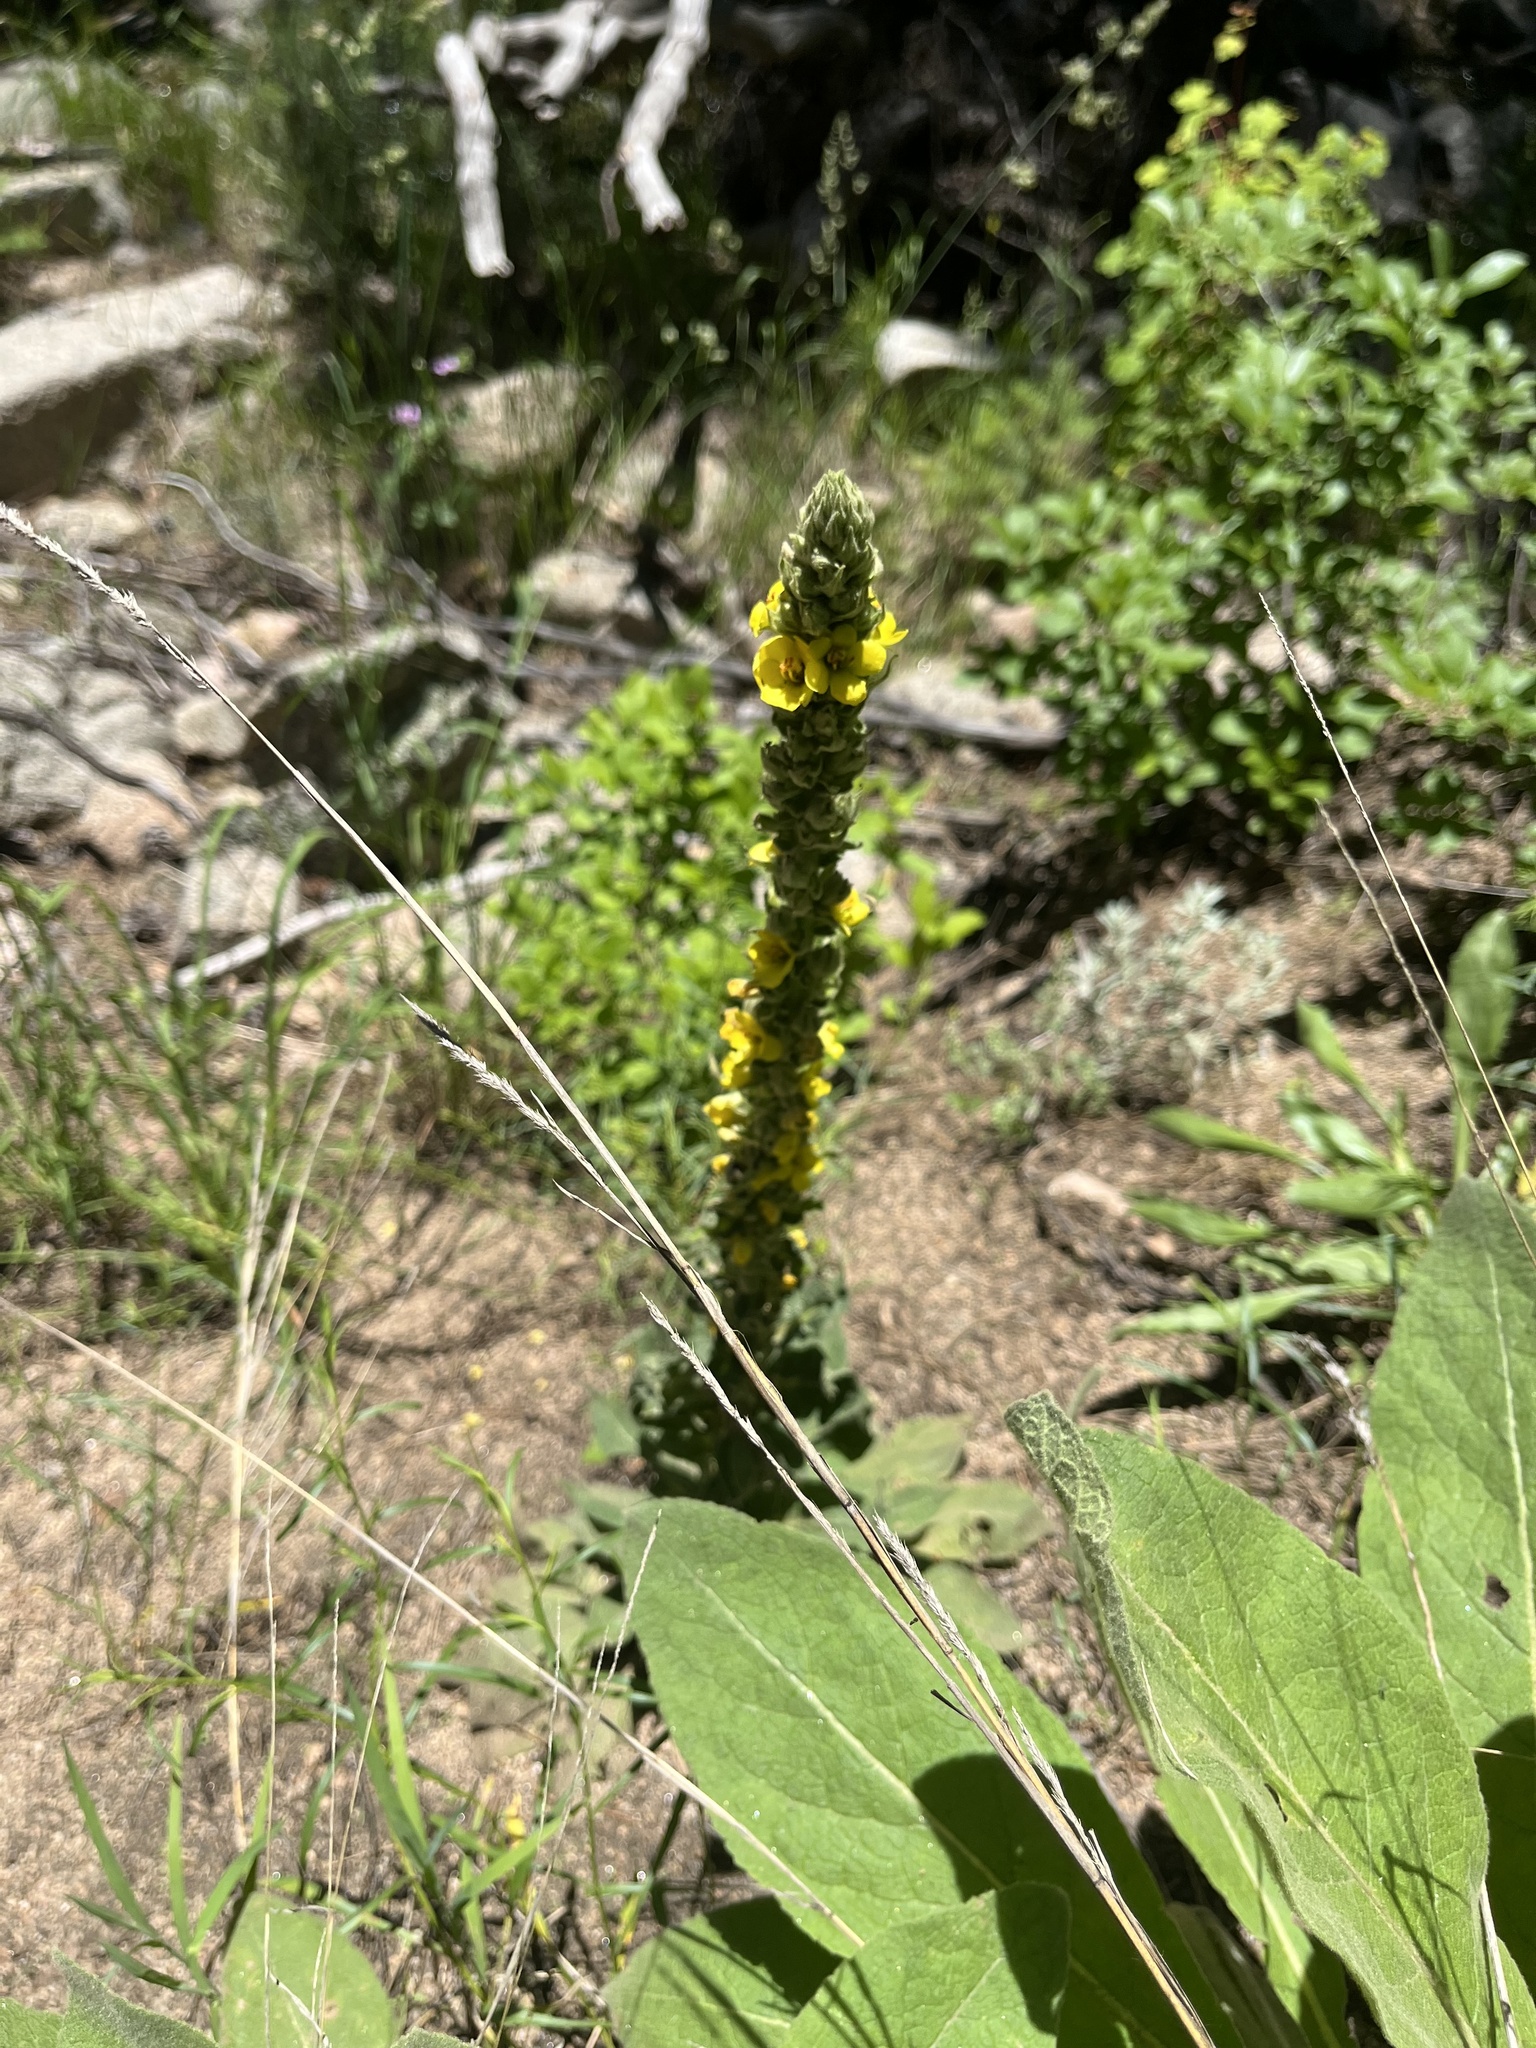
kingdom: Plantae
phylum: Tracheophyta
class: Magnoliopsida
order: Lamiales
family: Scrophulariaceae
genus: Verbascum
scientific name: Verbascum thapsus
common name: Common mullein
